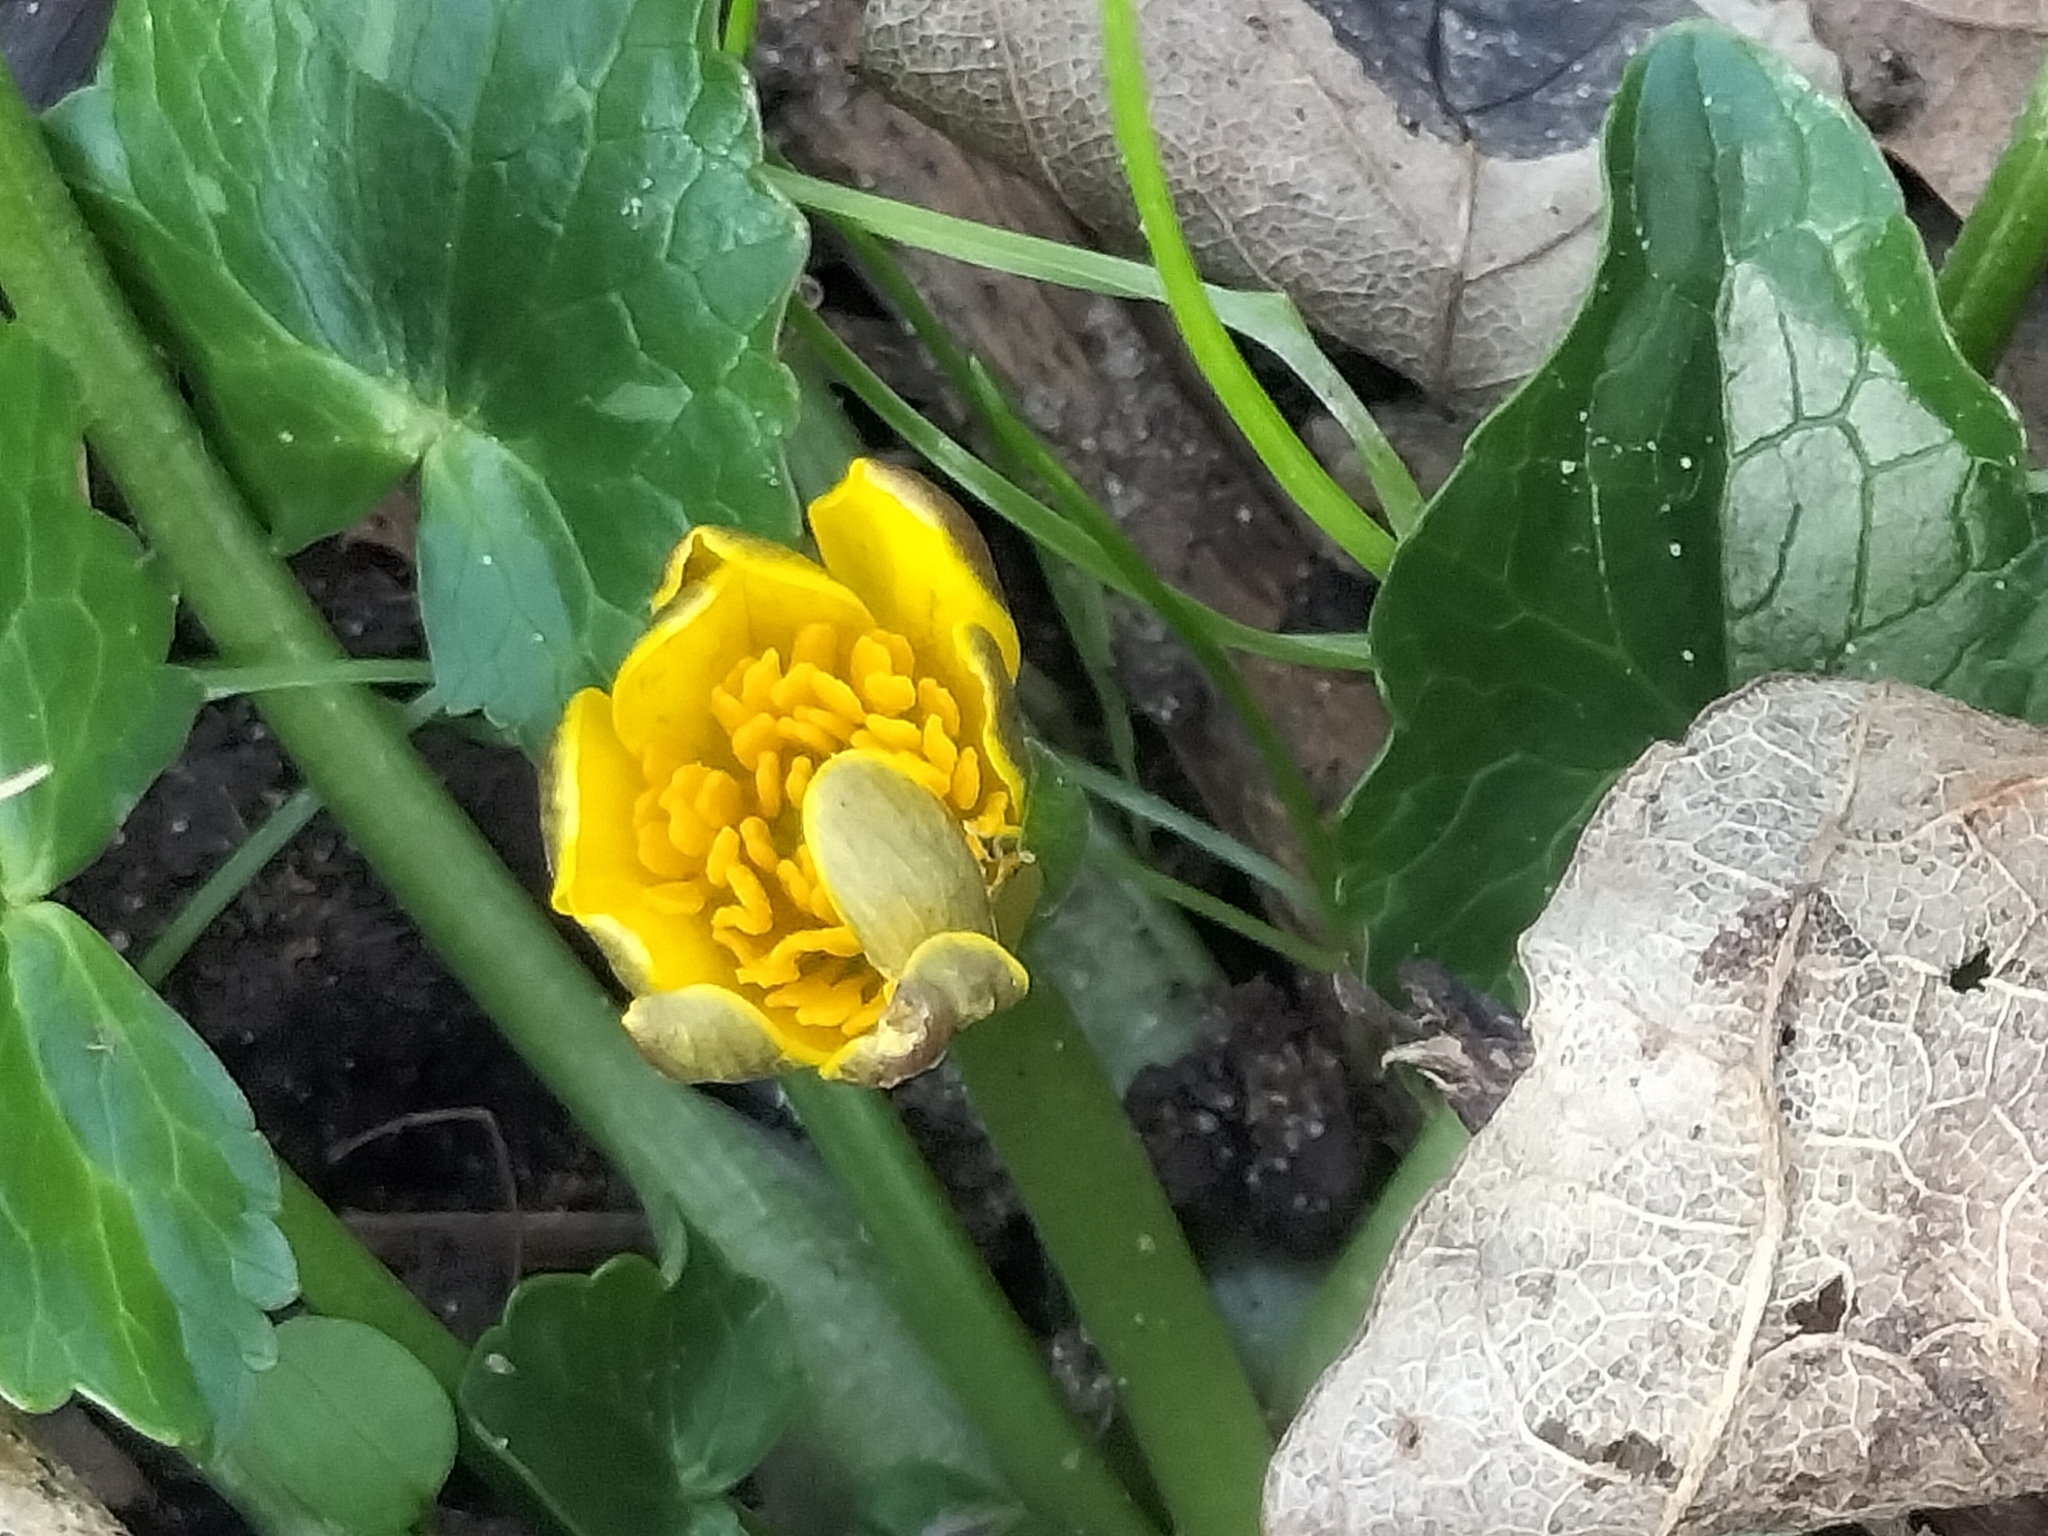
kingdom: Plantae
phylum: Tracheophyta
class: Magnoliopsida
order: Ranunculales
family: Ranunculaceae
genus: Ficaria
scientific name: Ficaria verna
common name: Lesser celandine
